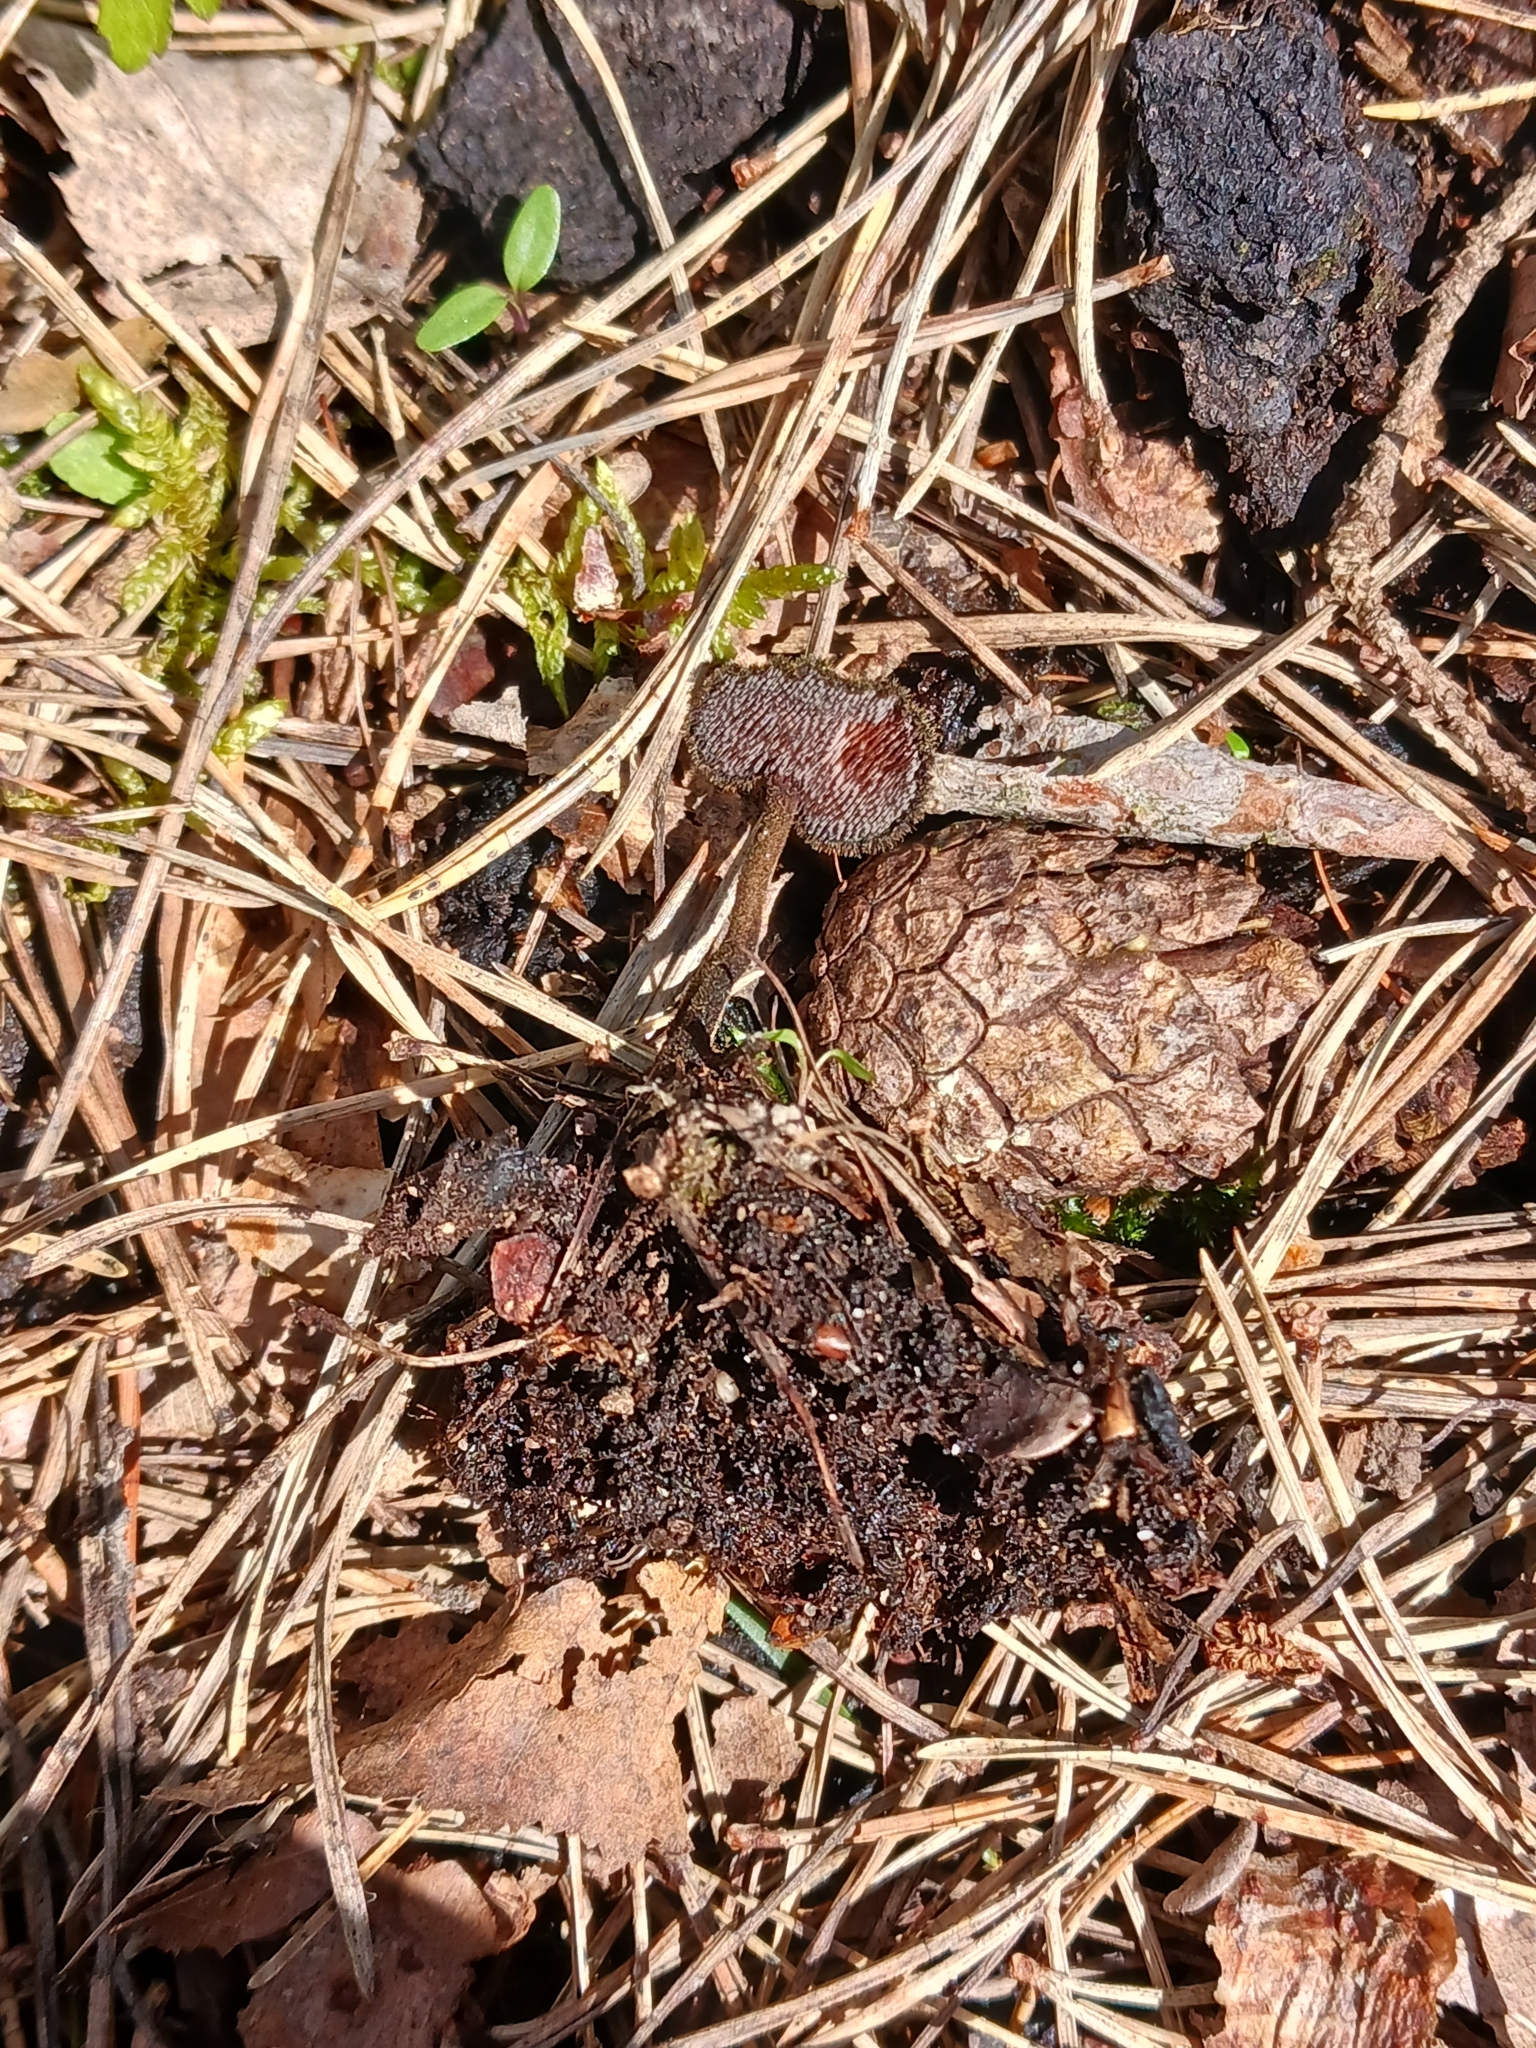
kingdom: Fungi
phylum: Basidiomycota
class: Agaricomycetes
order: Russulales
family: Auriscalpiaceae
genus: Auriscalpium
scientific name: Auriscalpium vulgare
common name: Earpick fungus
